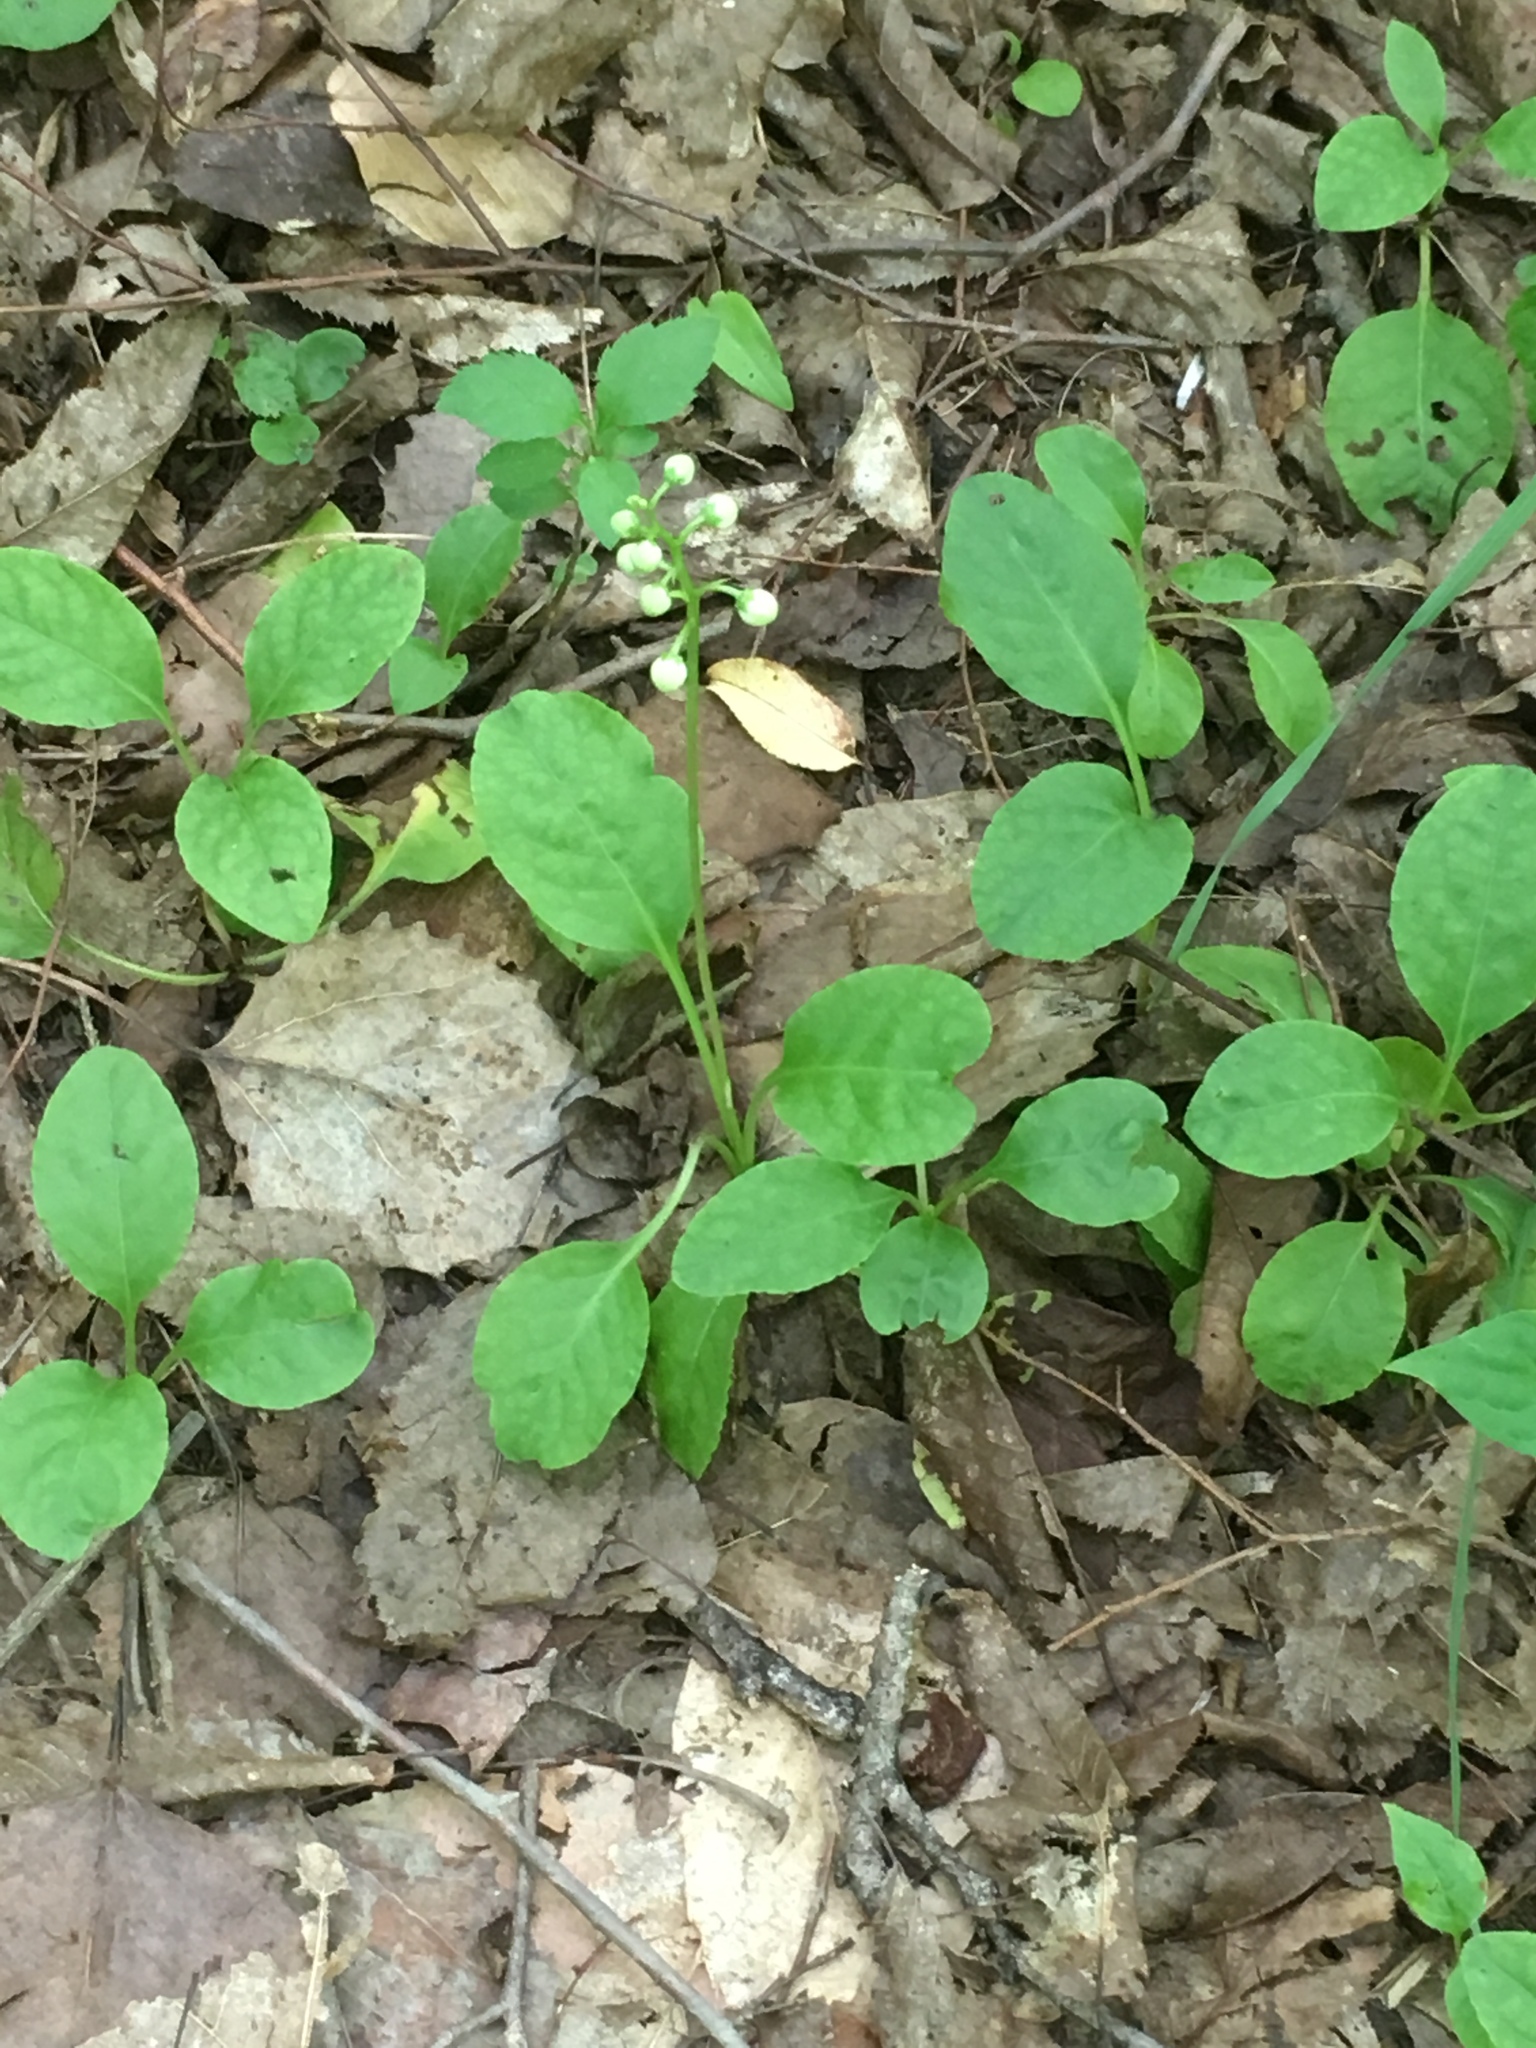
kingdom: Plantae
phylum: Tracheophyta
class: Magnoliopsida
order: Ericales
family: Ericaceae
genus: Pyrola
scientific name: Pyrola elliptica
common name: Shinleaf
